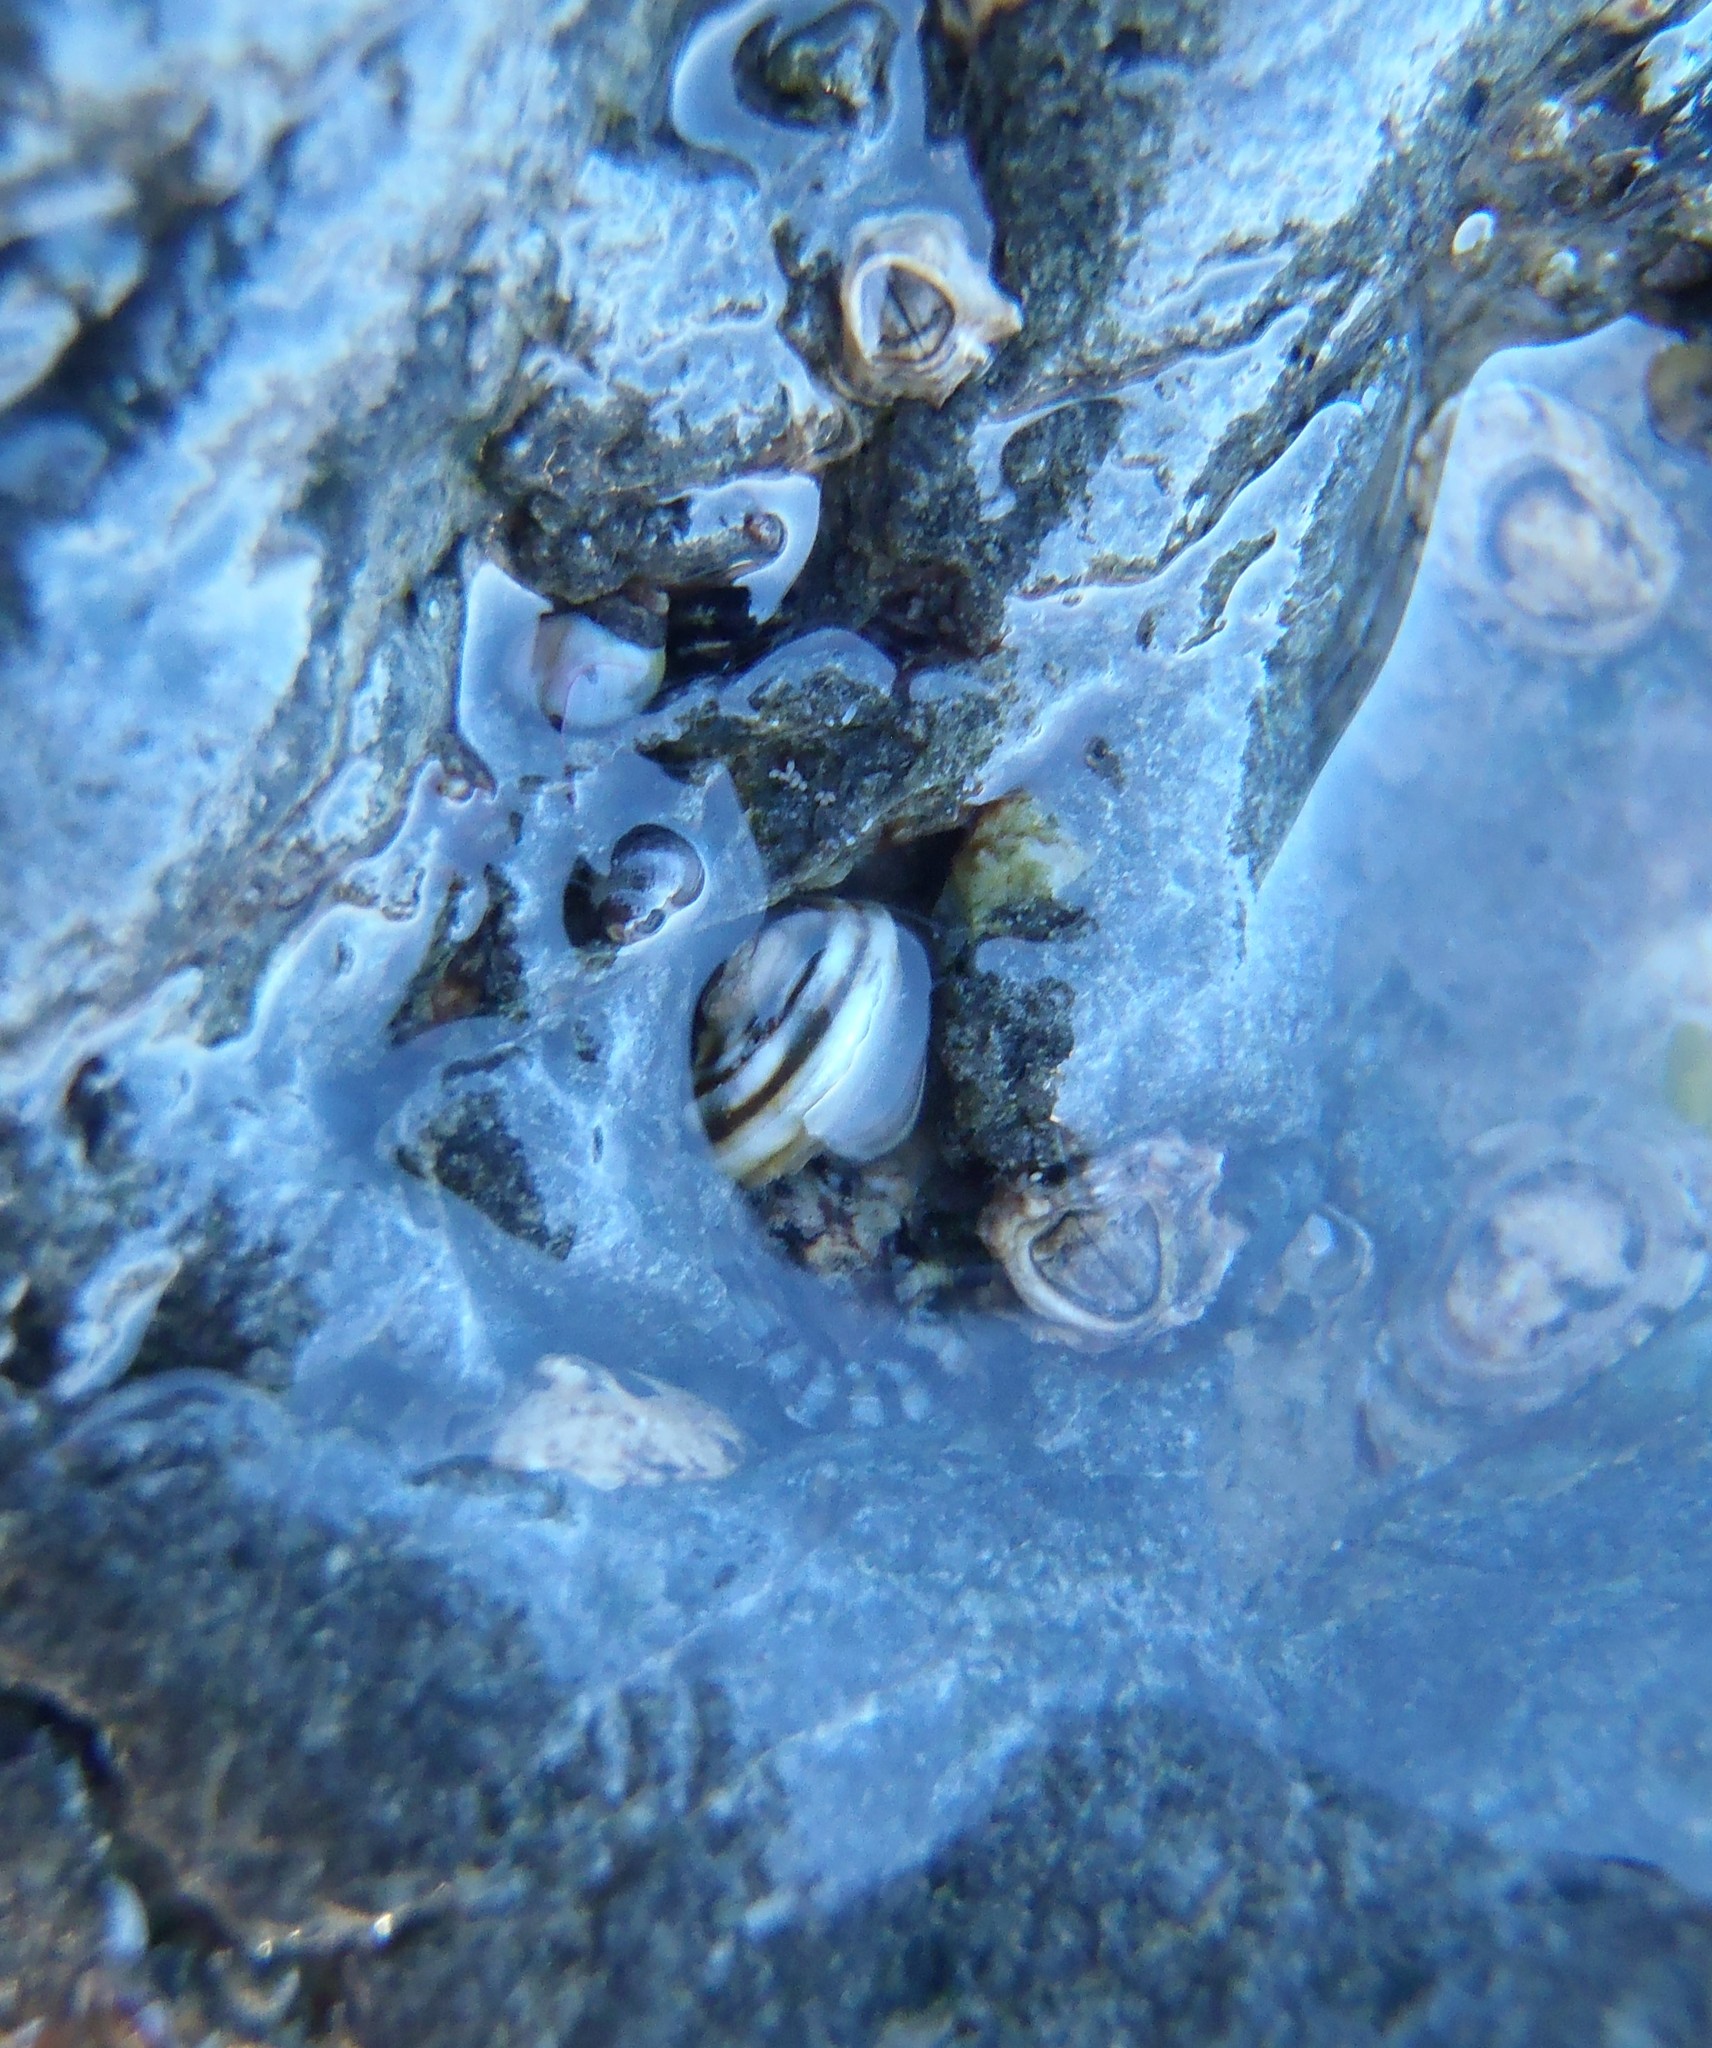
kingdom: Animalia
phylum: Mollusca
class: Gastropoda
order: Littorinimorpha
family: Littorinidae
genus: Risellopsis
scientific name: Risellopsis varia
